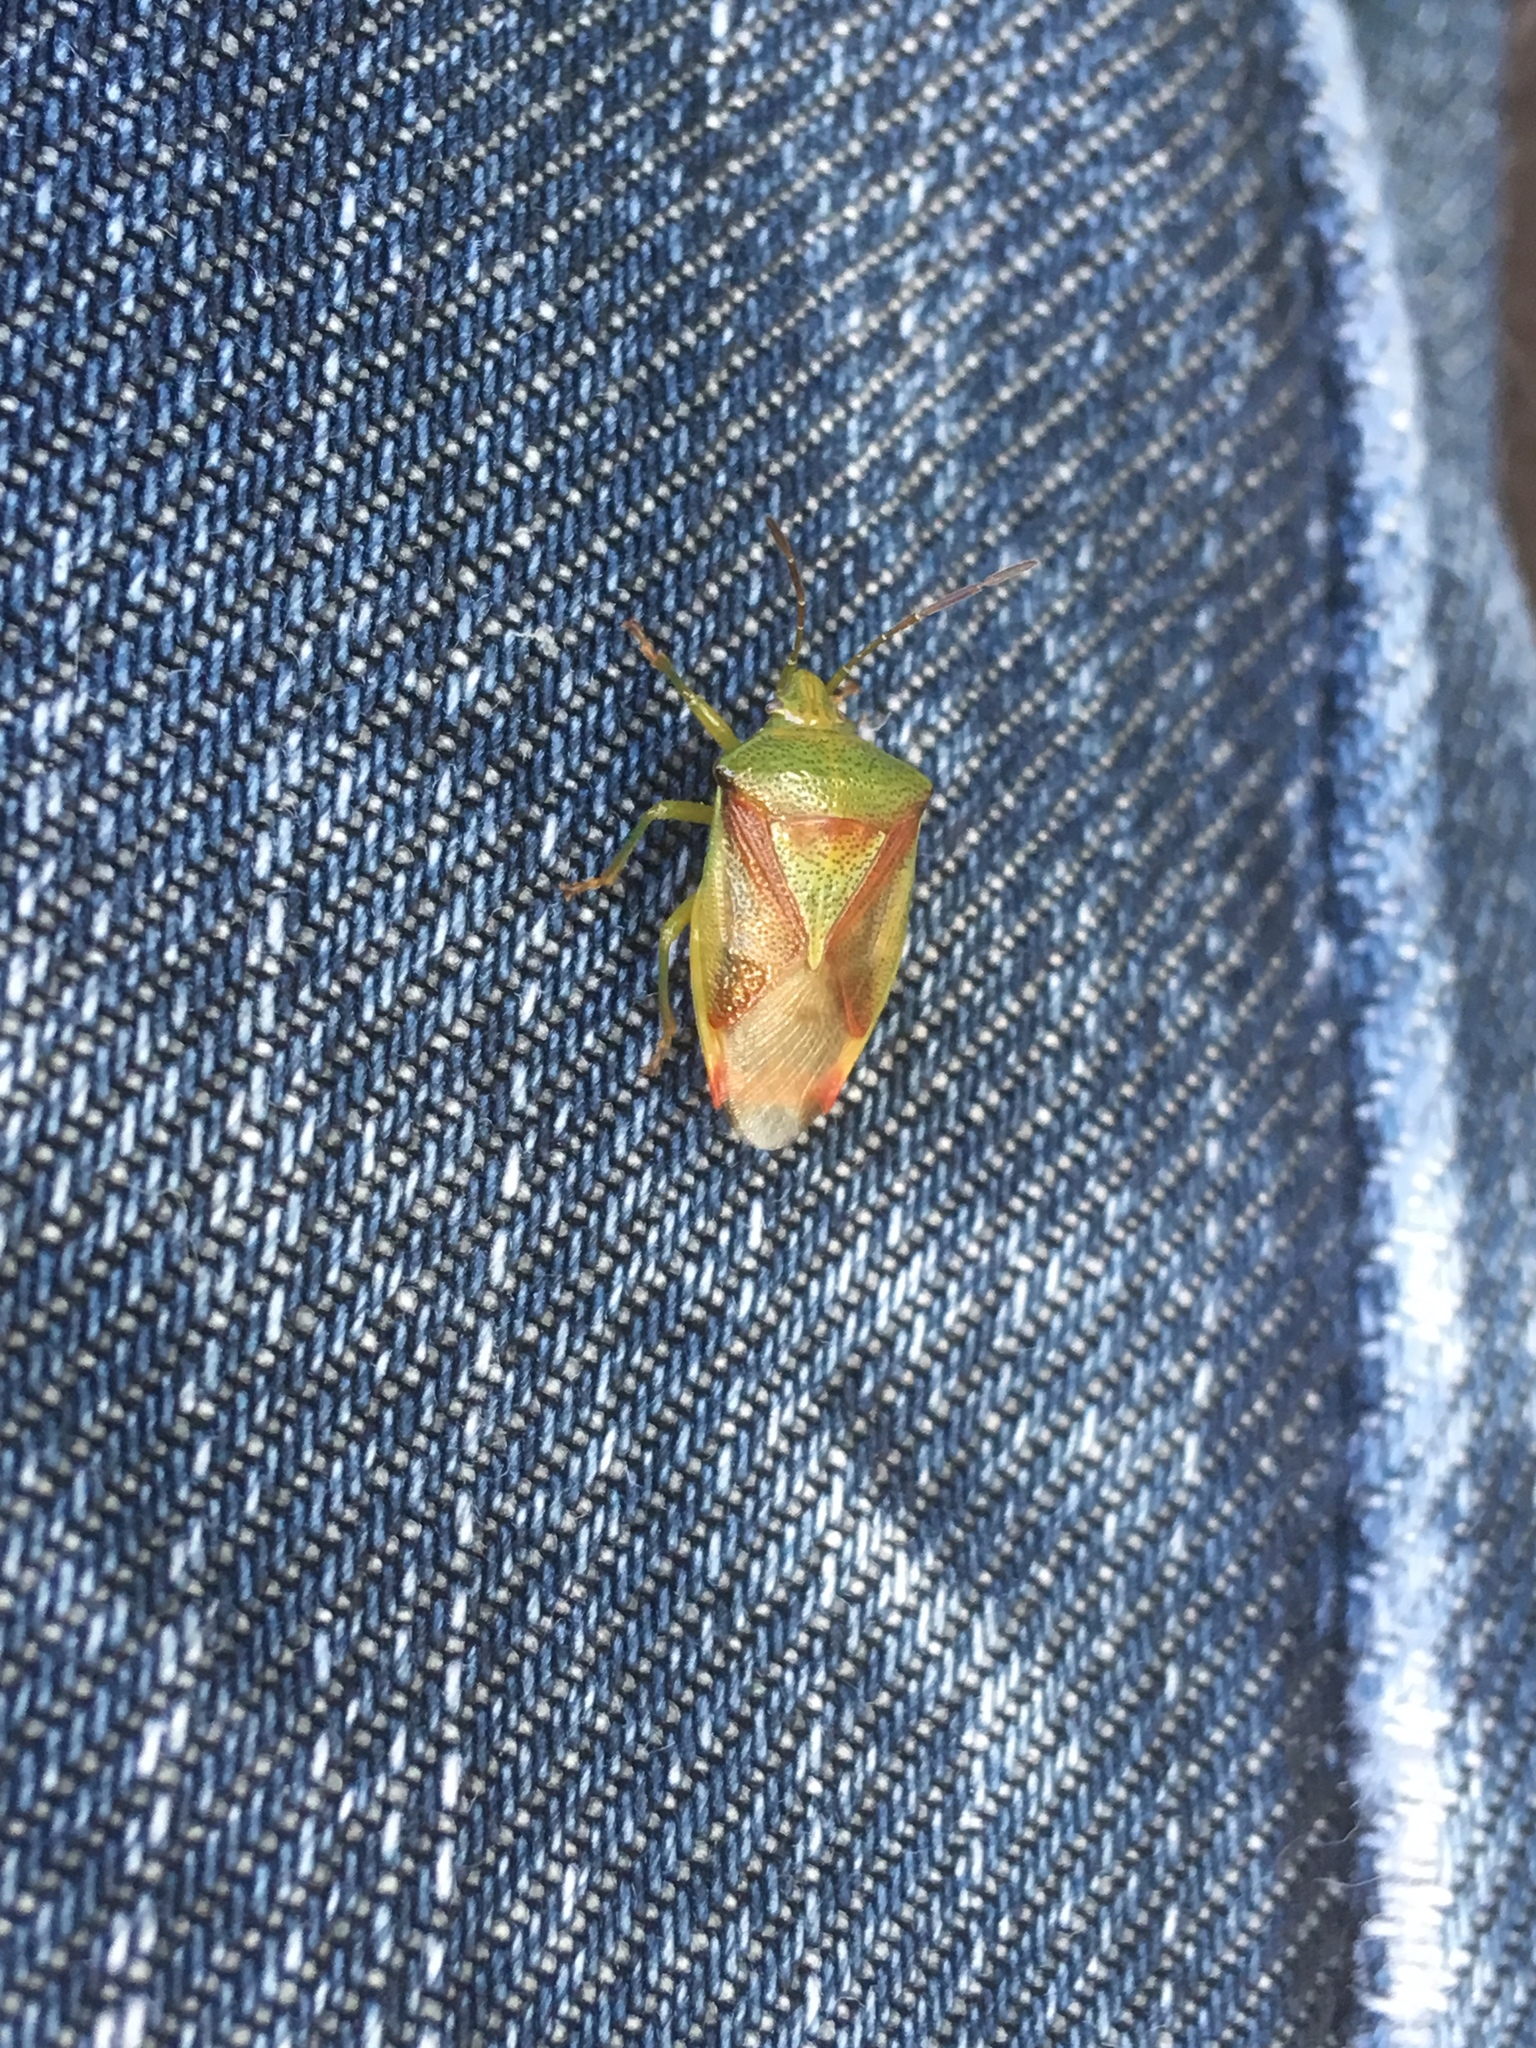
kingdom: Animalia
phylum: Arthropoda
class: Insecta
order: Hemiptera
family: Acanthosomatidae
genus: Elasmostethus
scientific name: Elasmostethus interstinctus
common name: Birch shieldbug
